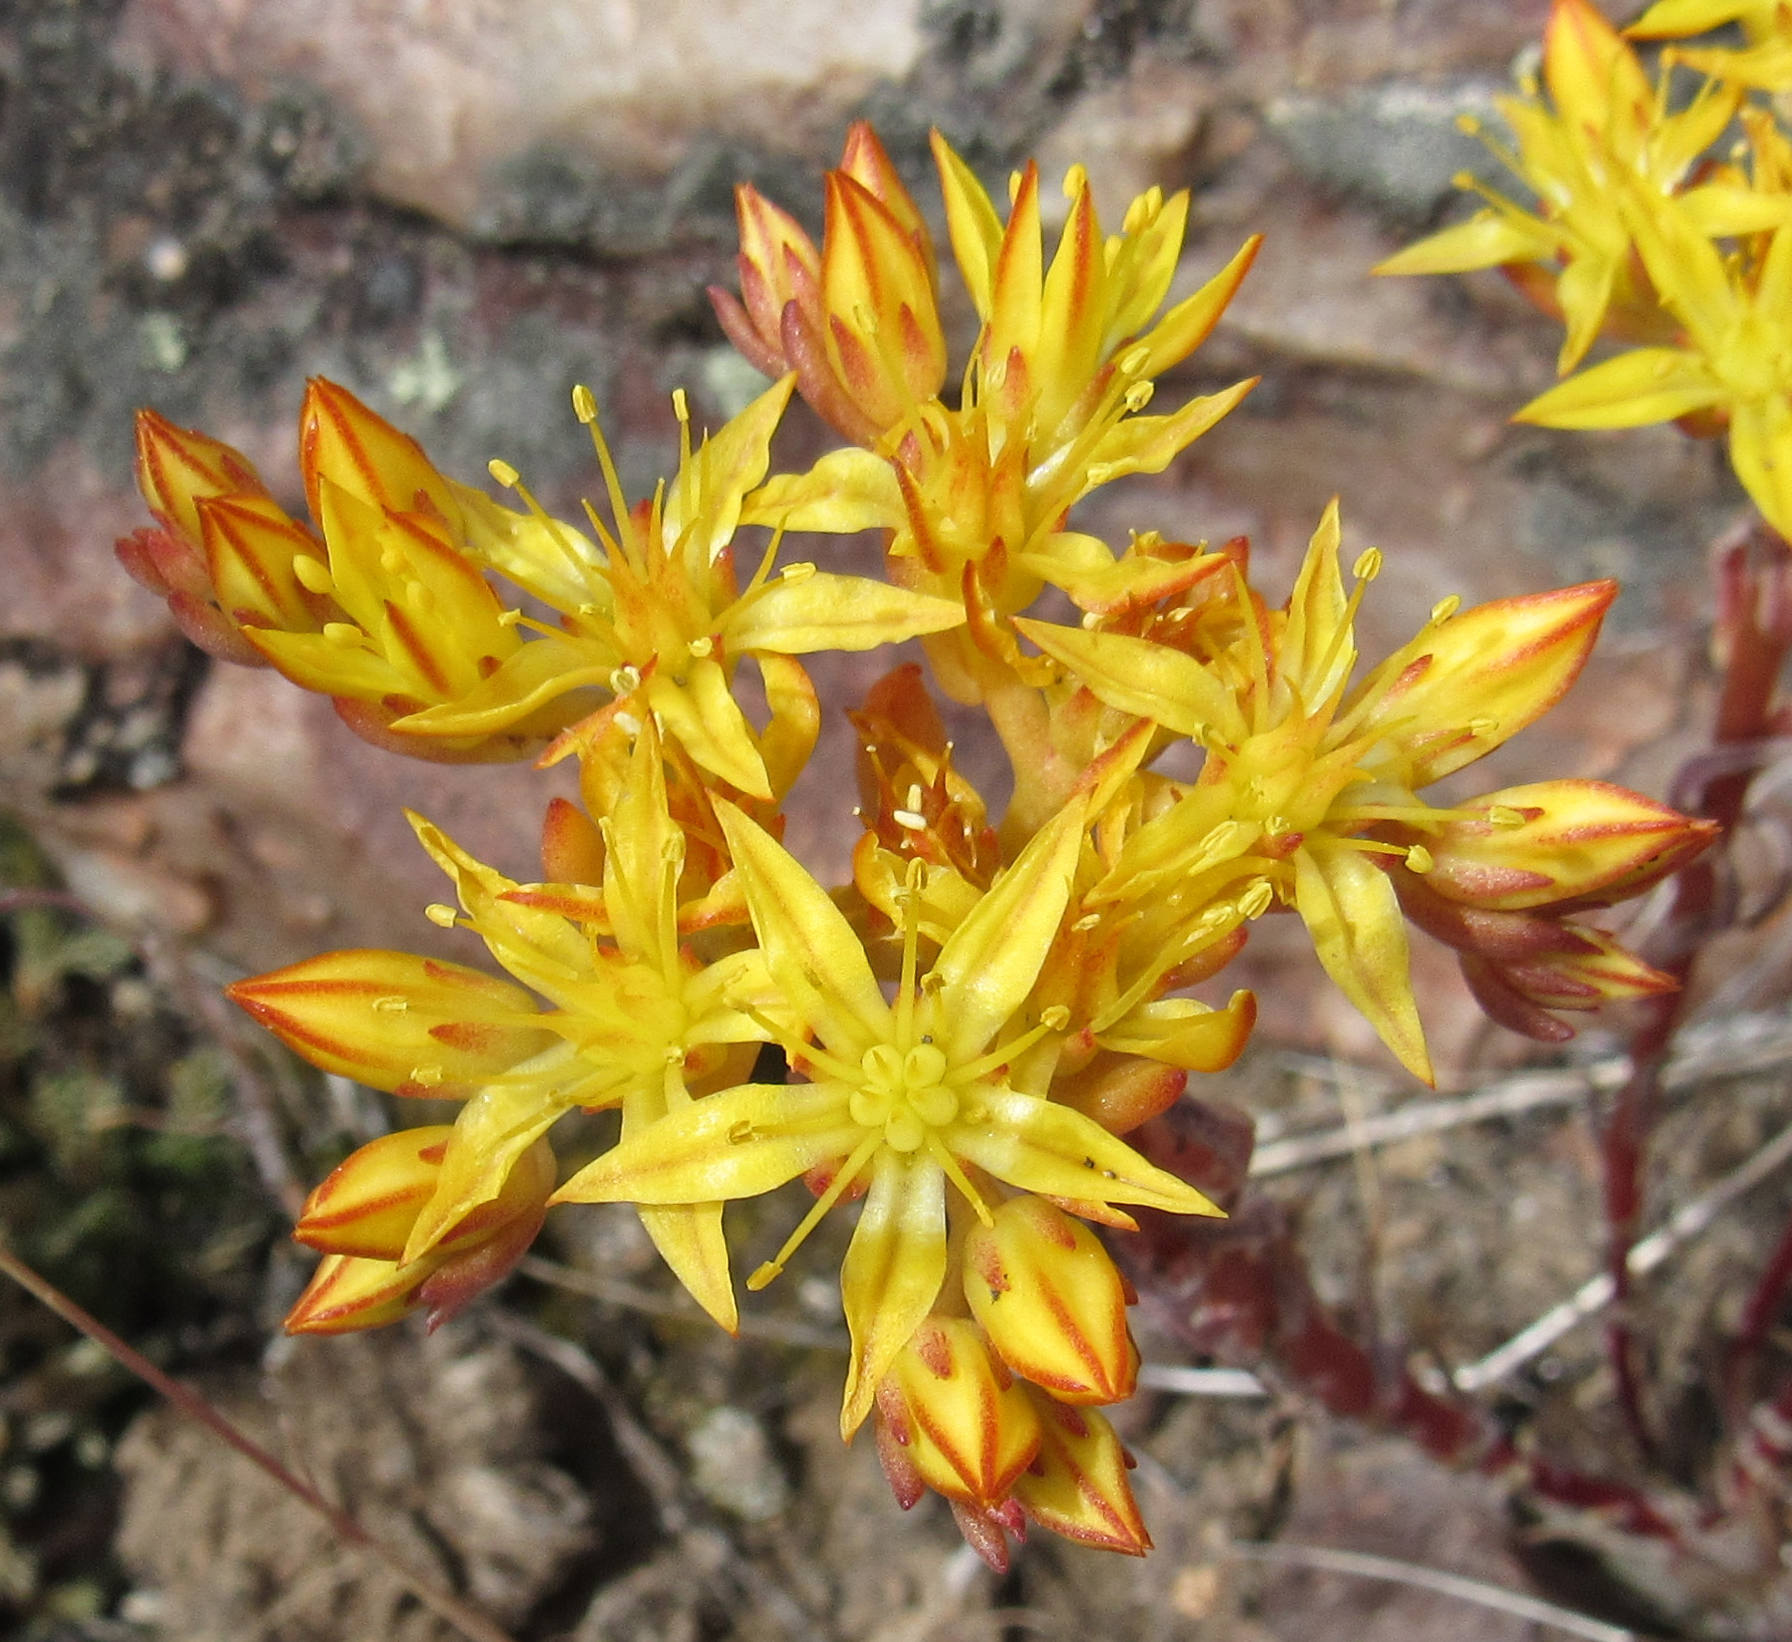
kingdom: Plantae
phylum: Tracheophyta
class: Magnoliopsida
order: Saxifragales
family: Crassulaceae
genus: Sedum
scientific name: Sedum lanceolatum
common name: Common stonecrop
